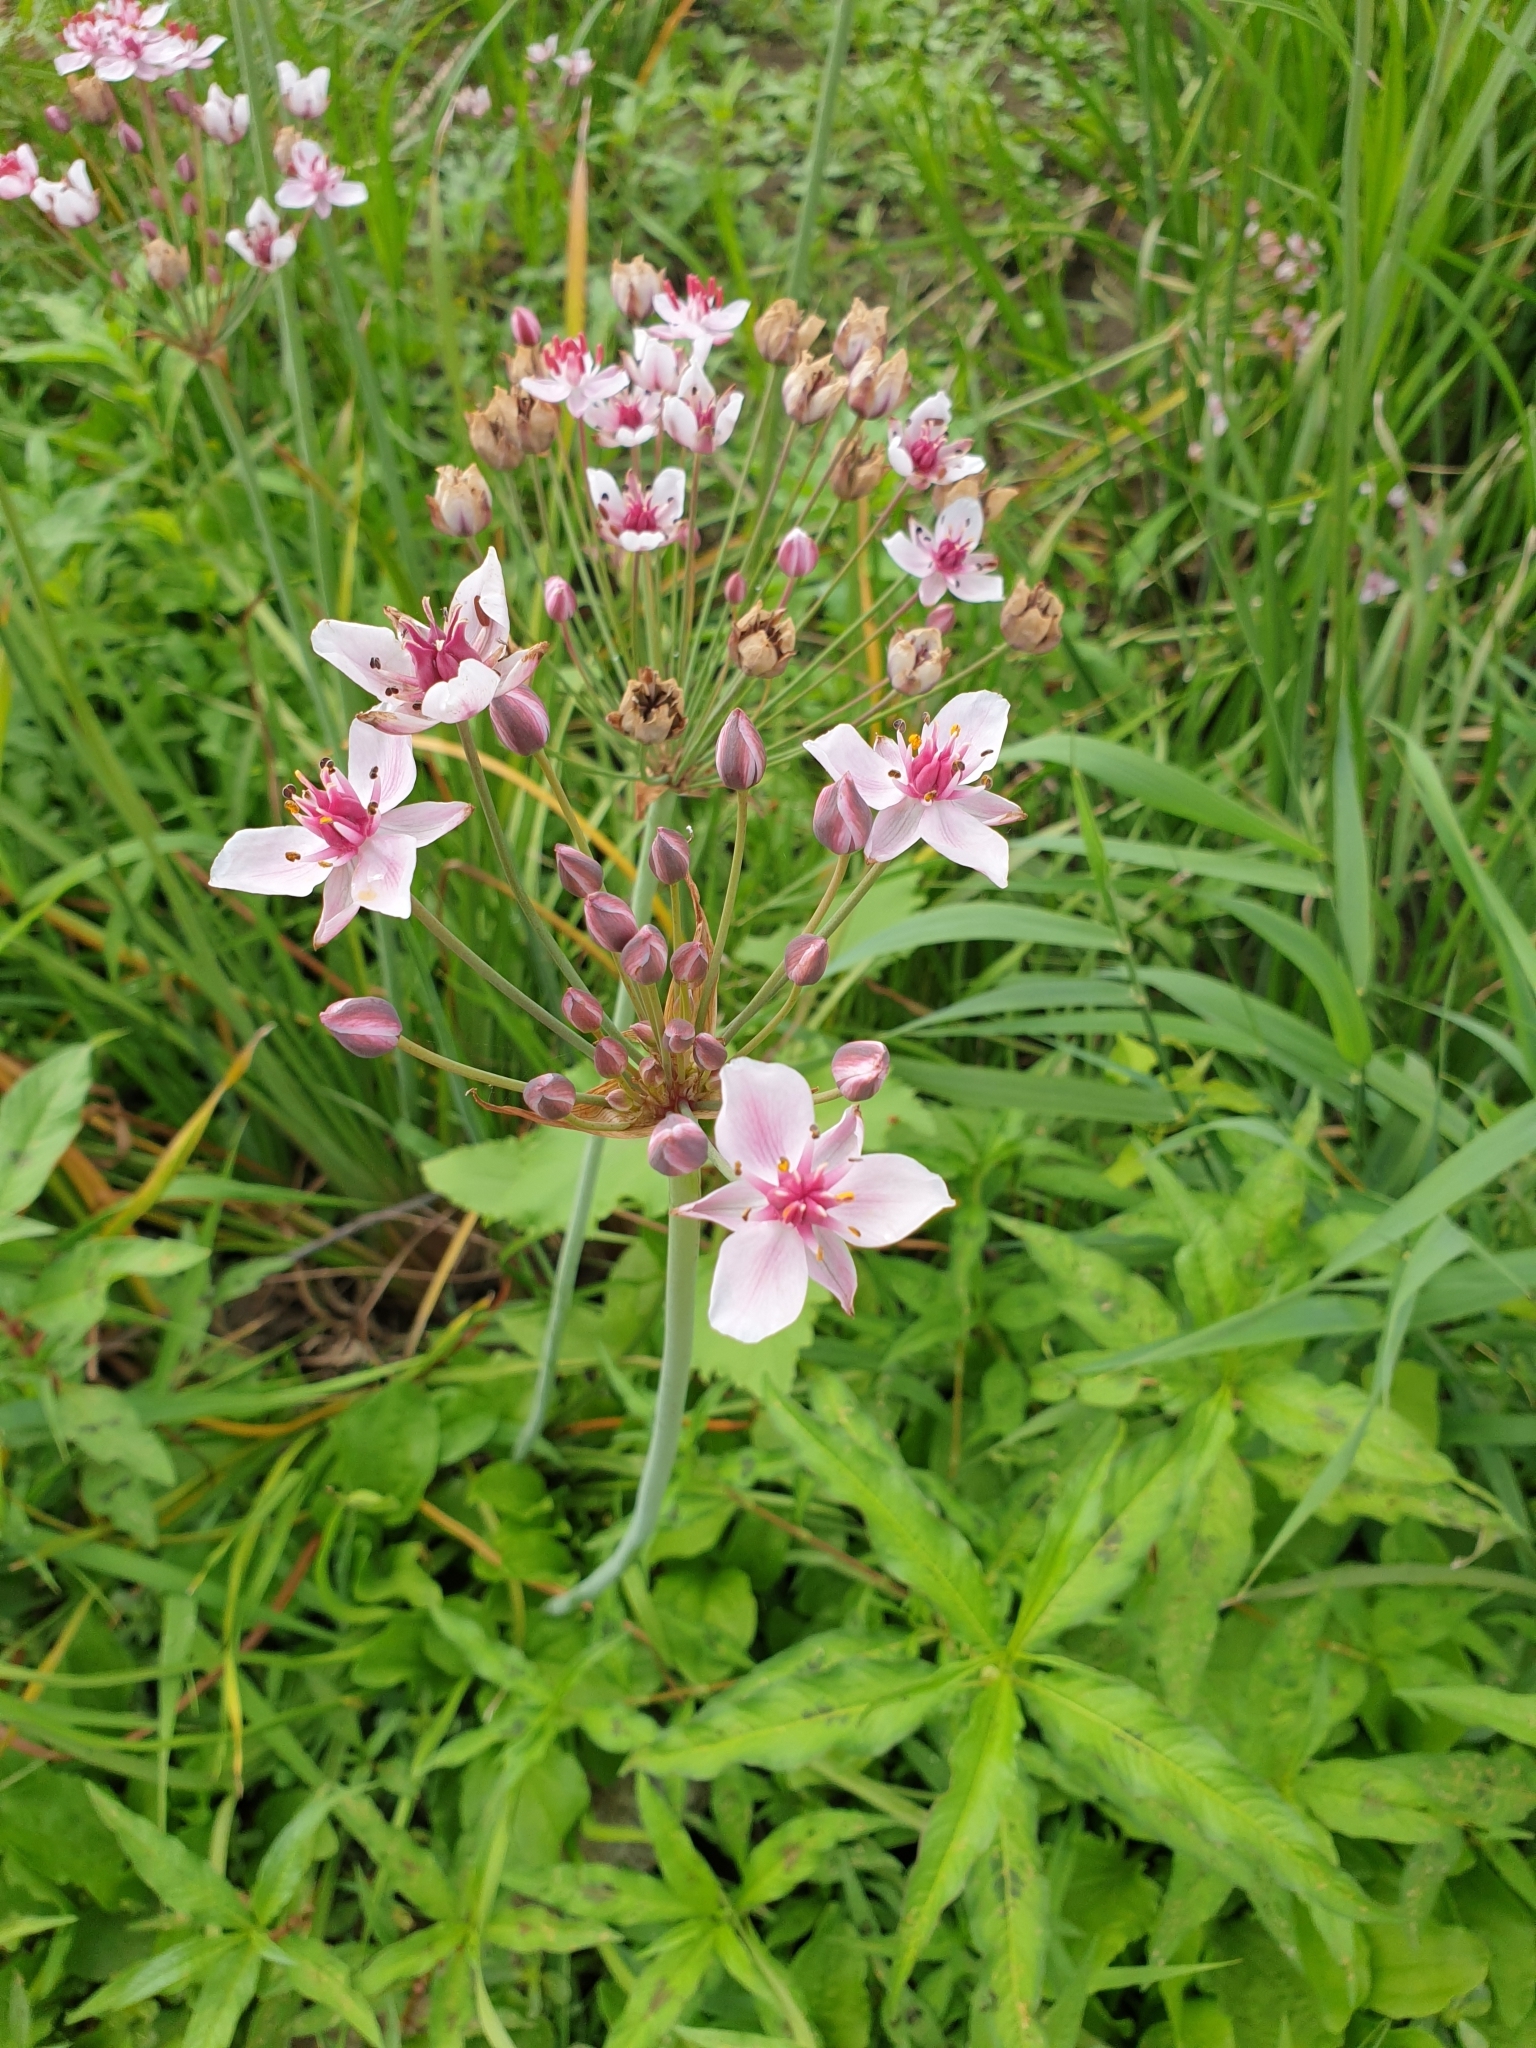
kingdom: Plantae
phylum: Tracheophyta
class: Liliopsida
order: Alismatales
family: Butomaceae
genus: Butomus
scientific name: Butomus umbellatus
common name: Flowering-rush
